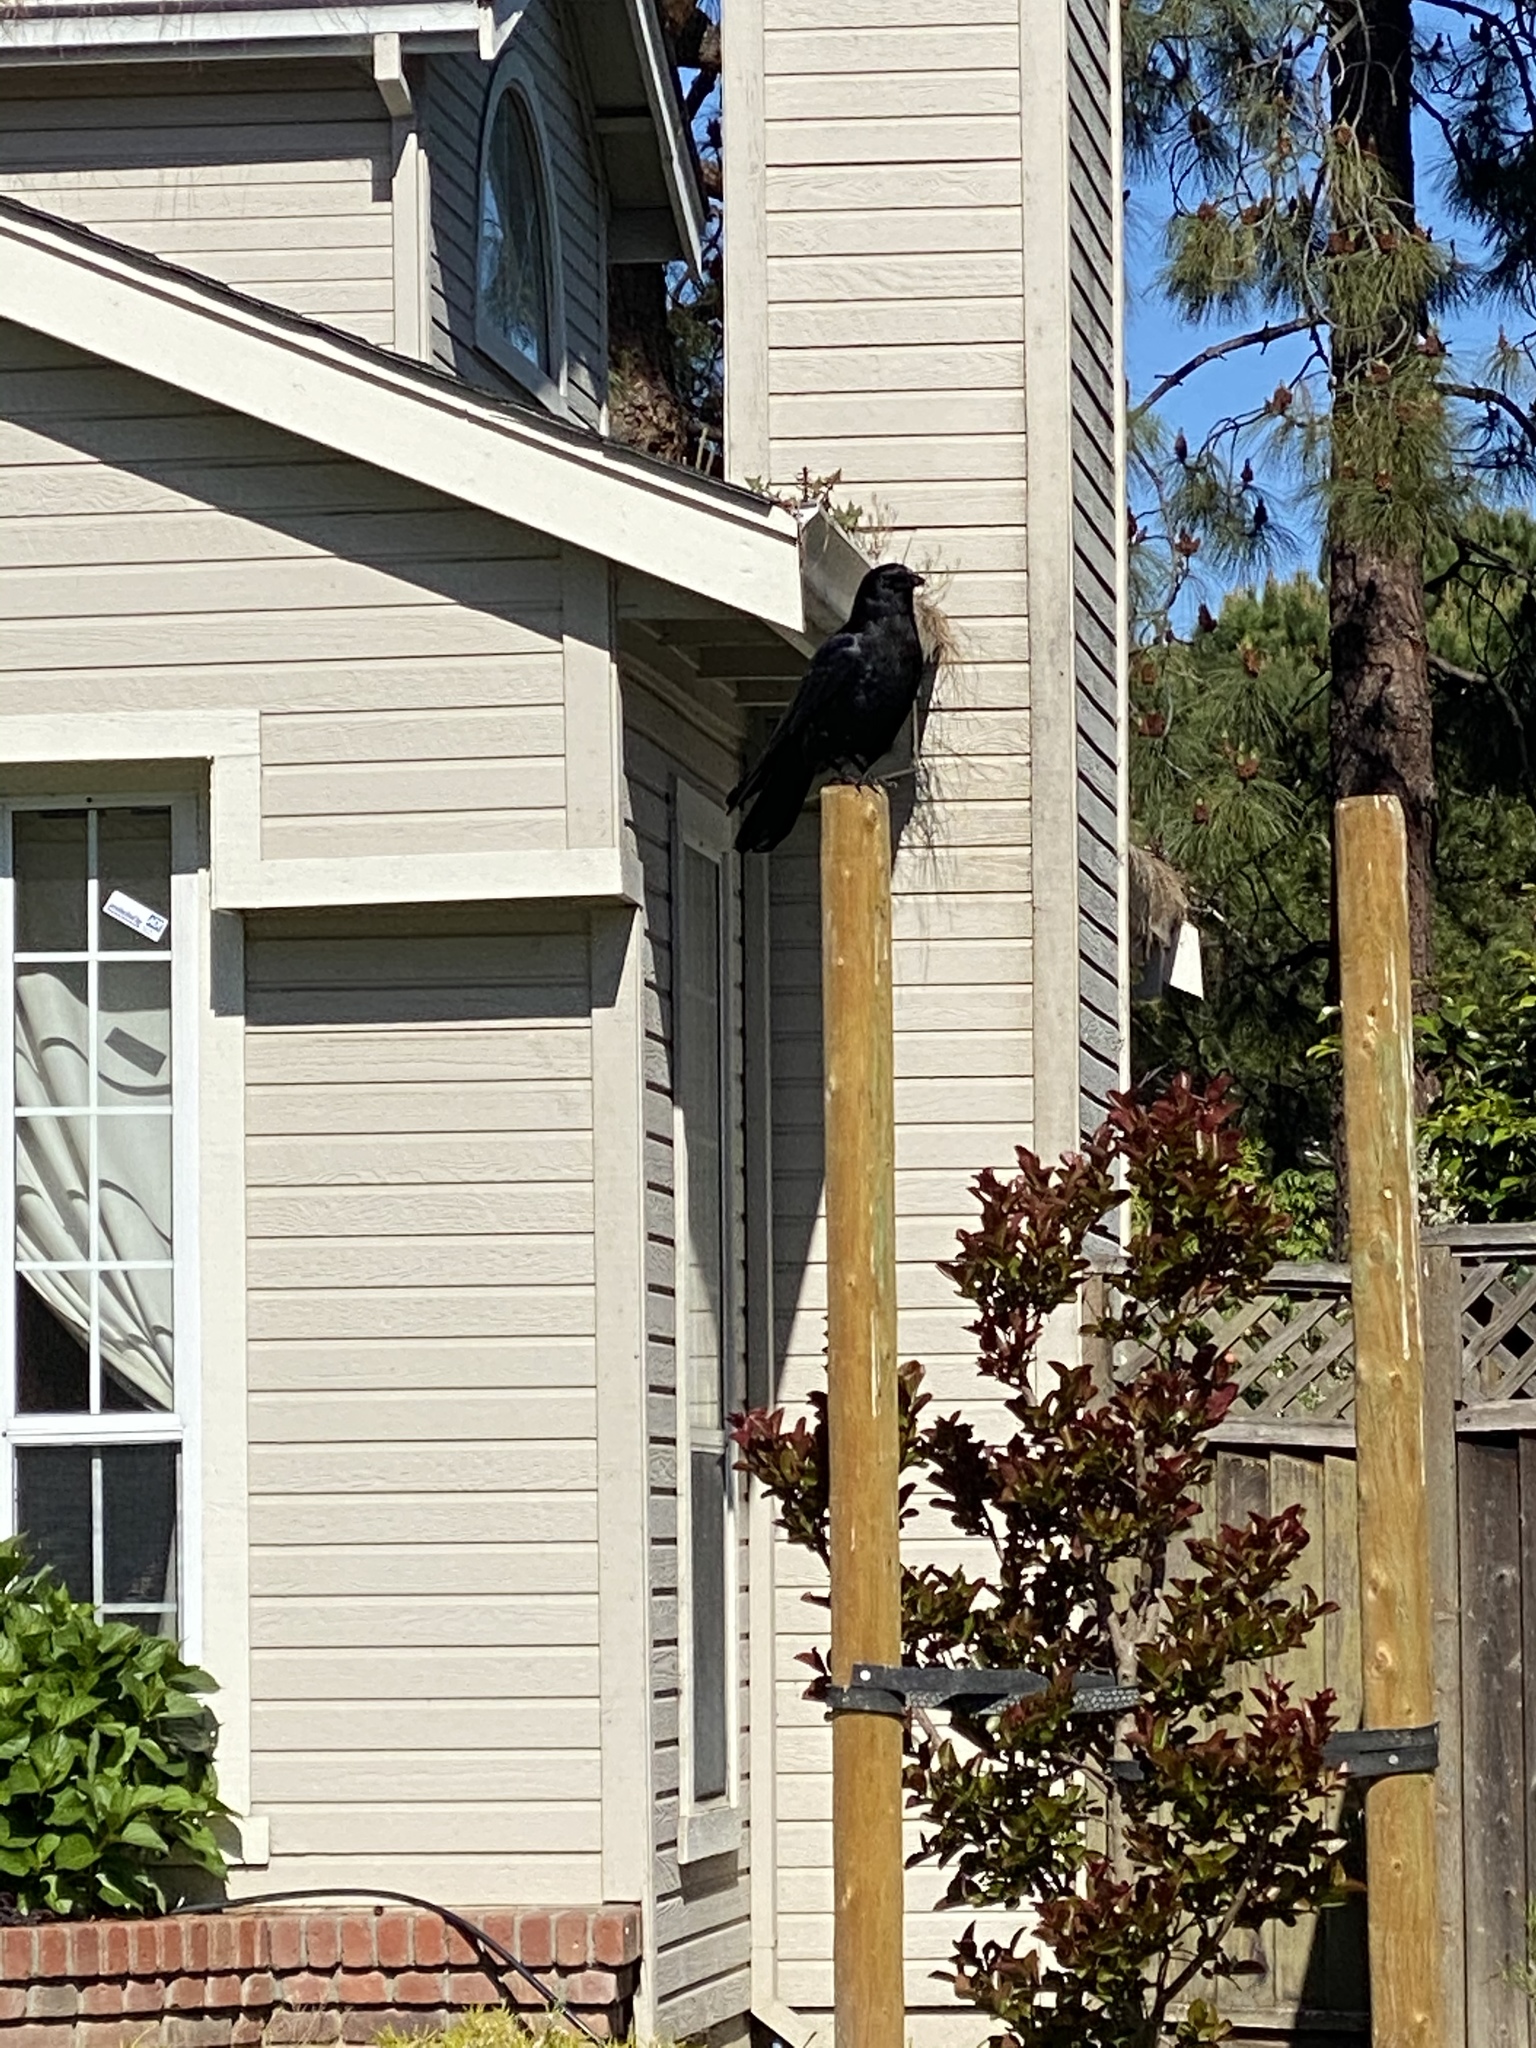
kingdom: Animalia
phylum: Chordata
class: Aves
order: Passeriformes
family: Corvidae
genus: Corvus
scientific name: Corvus brachyrhynchos
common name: American crow
